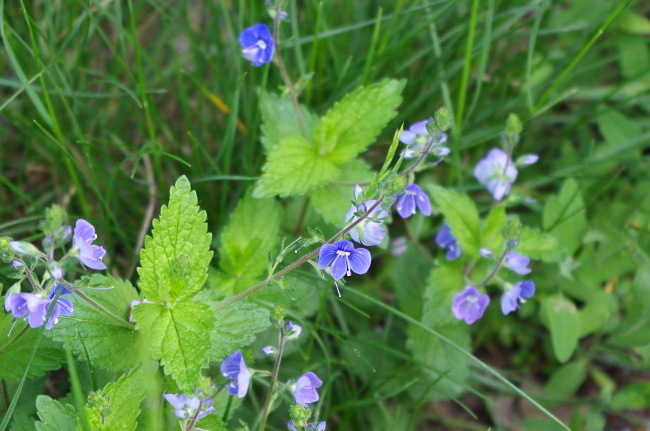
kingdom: Plantae
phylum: Tracheophyta
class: Magnoliopsida
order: Lamiales
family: Plantaginaceae
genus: Veronica
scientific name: Veronica chamaedrys
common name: Germander speedwell
